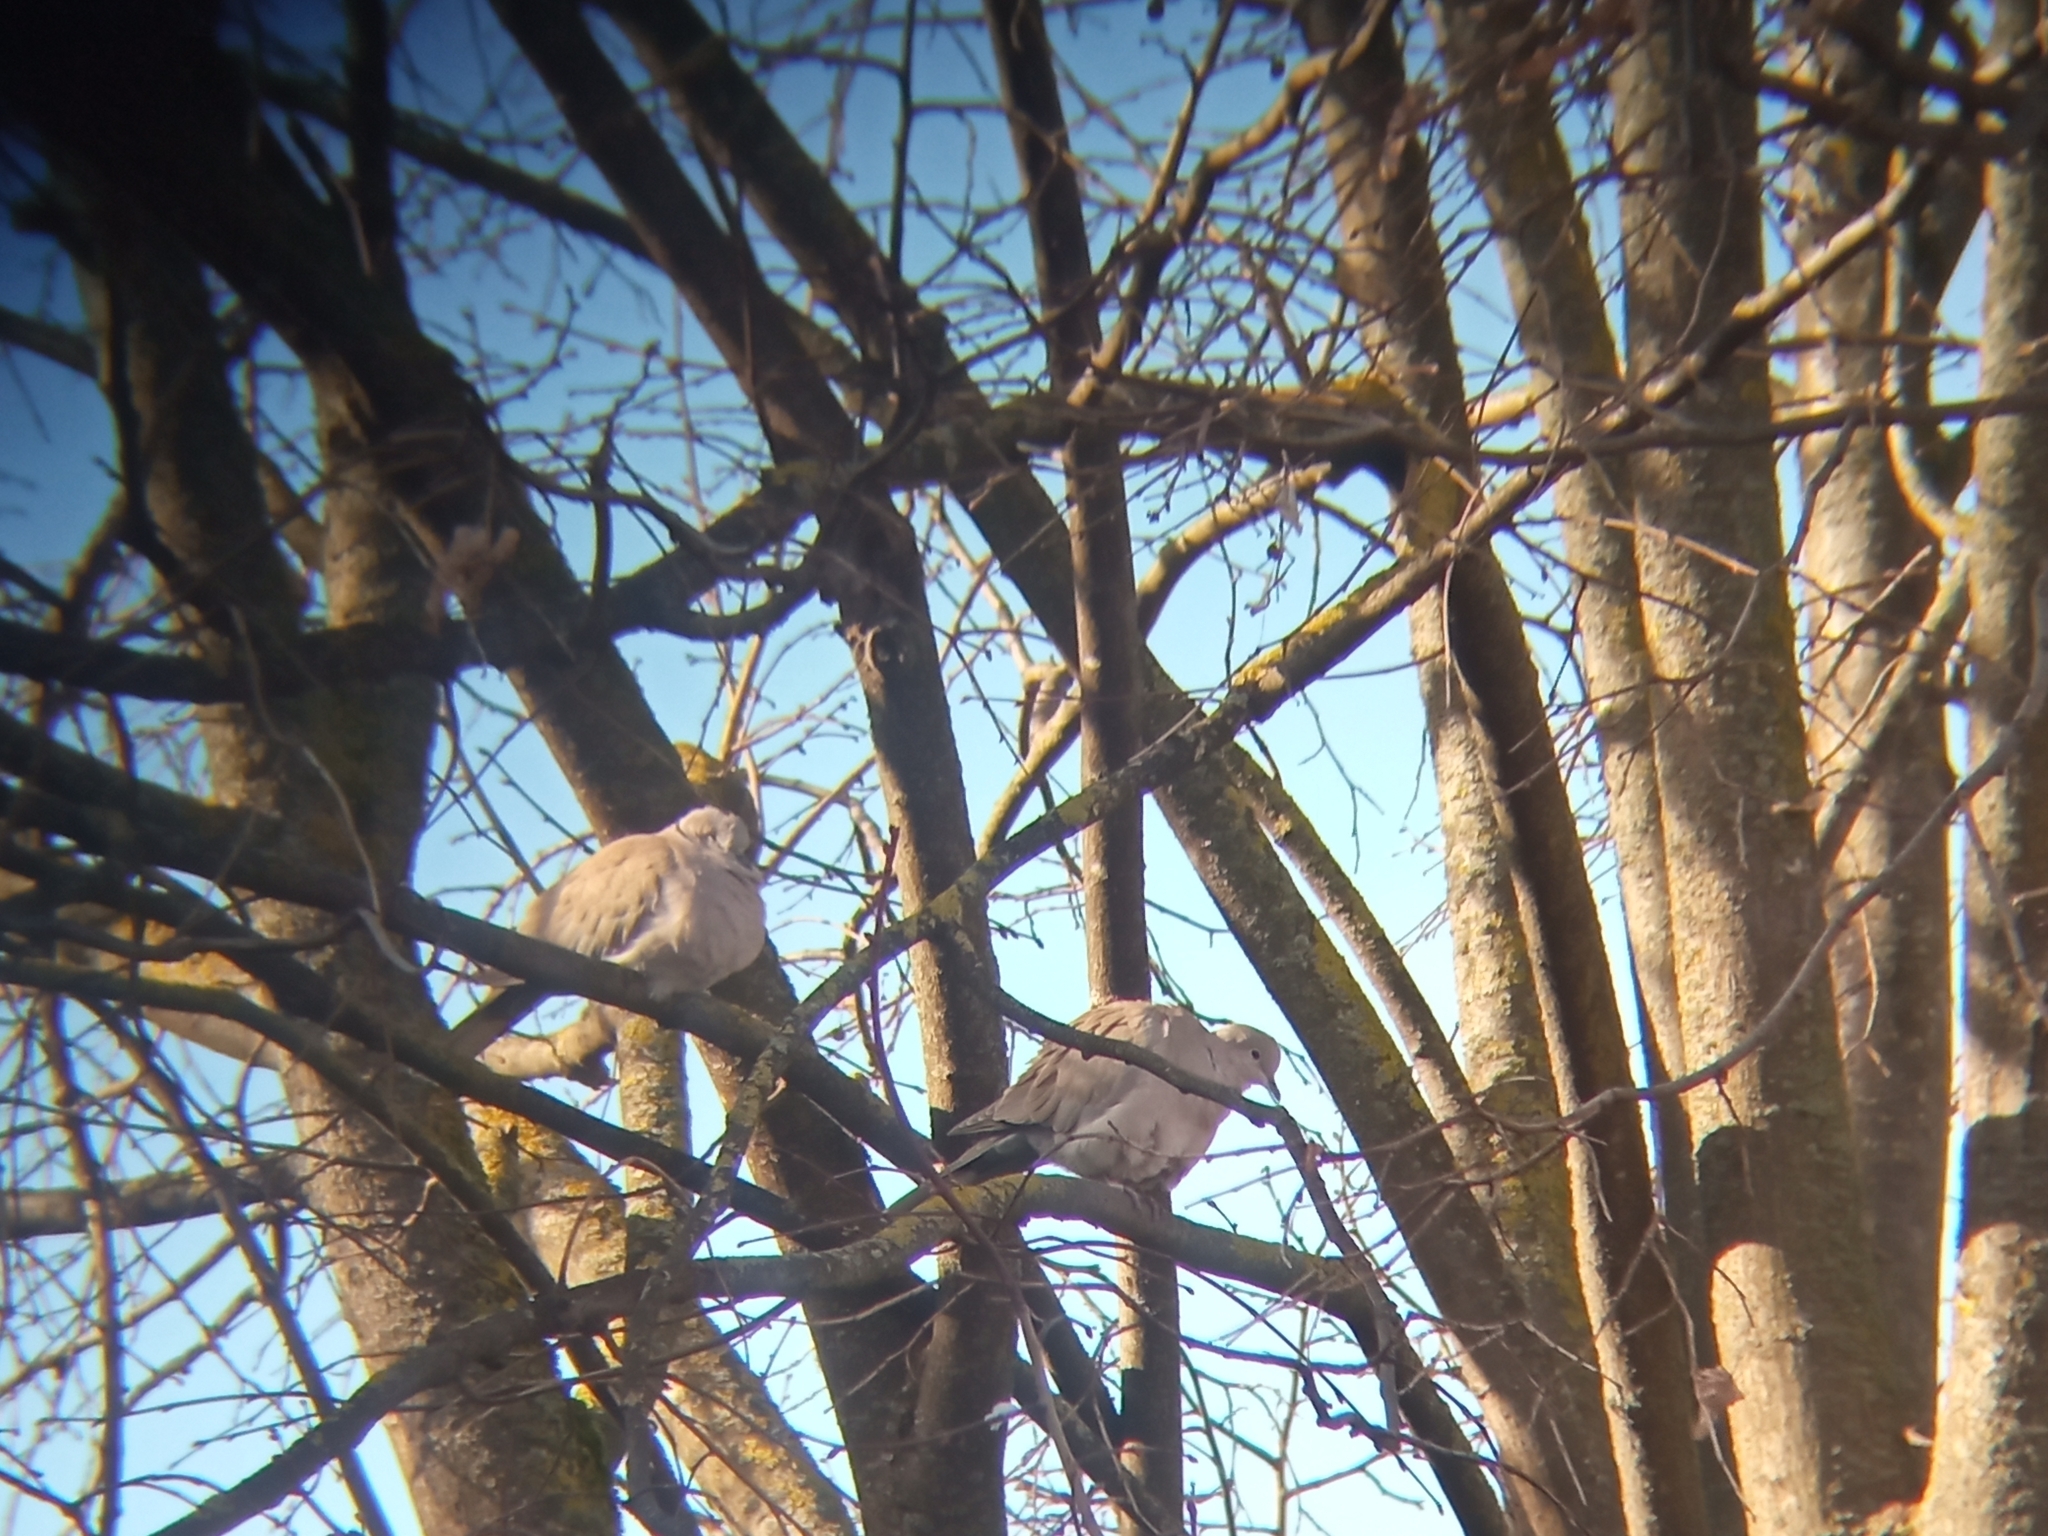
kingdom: Animalia
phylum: Chordata
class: Aves
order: Columbiformes
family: Columbidae
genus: Streptopelia
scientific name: Streptopelia decaocto
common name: Eurasian collared dove
